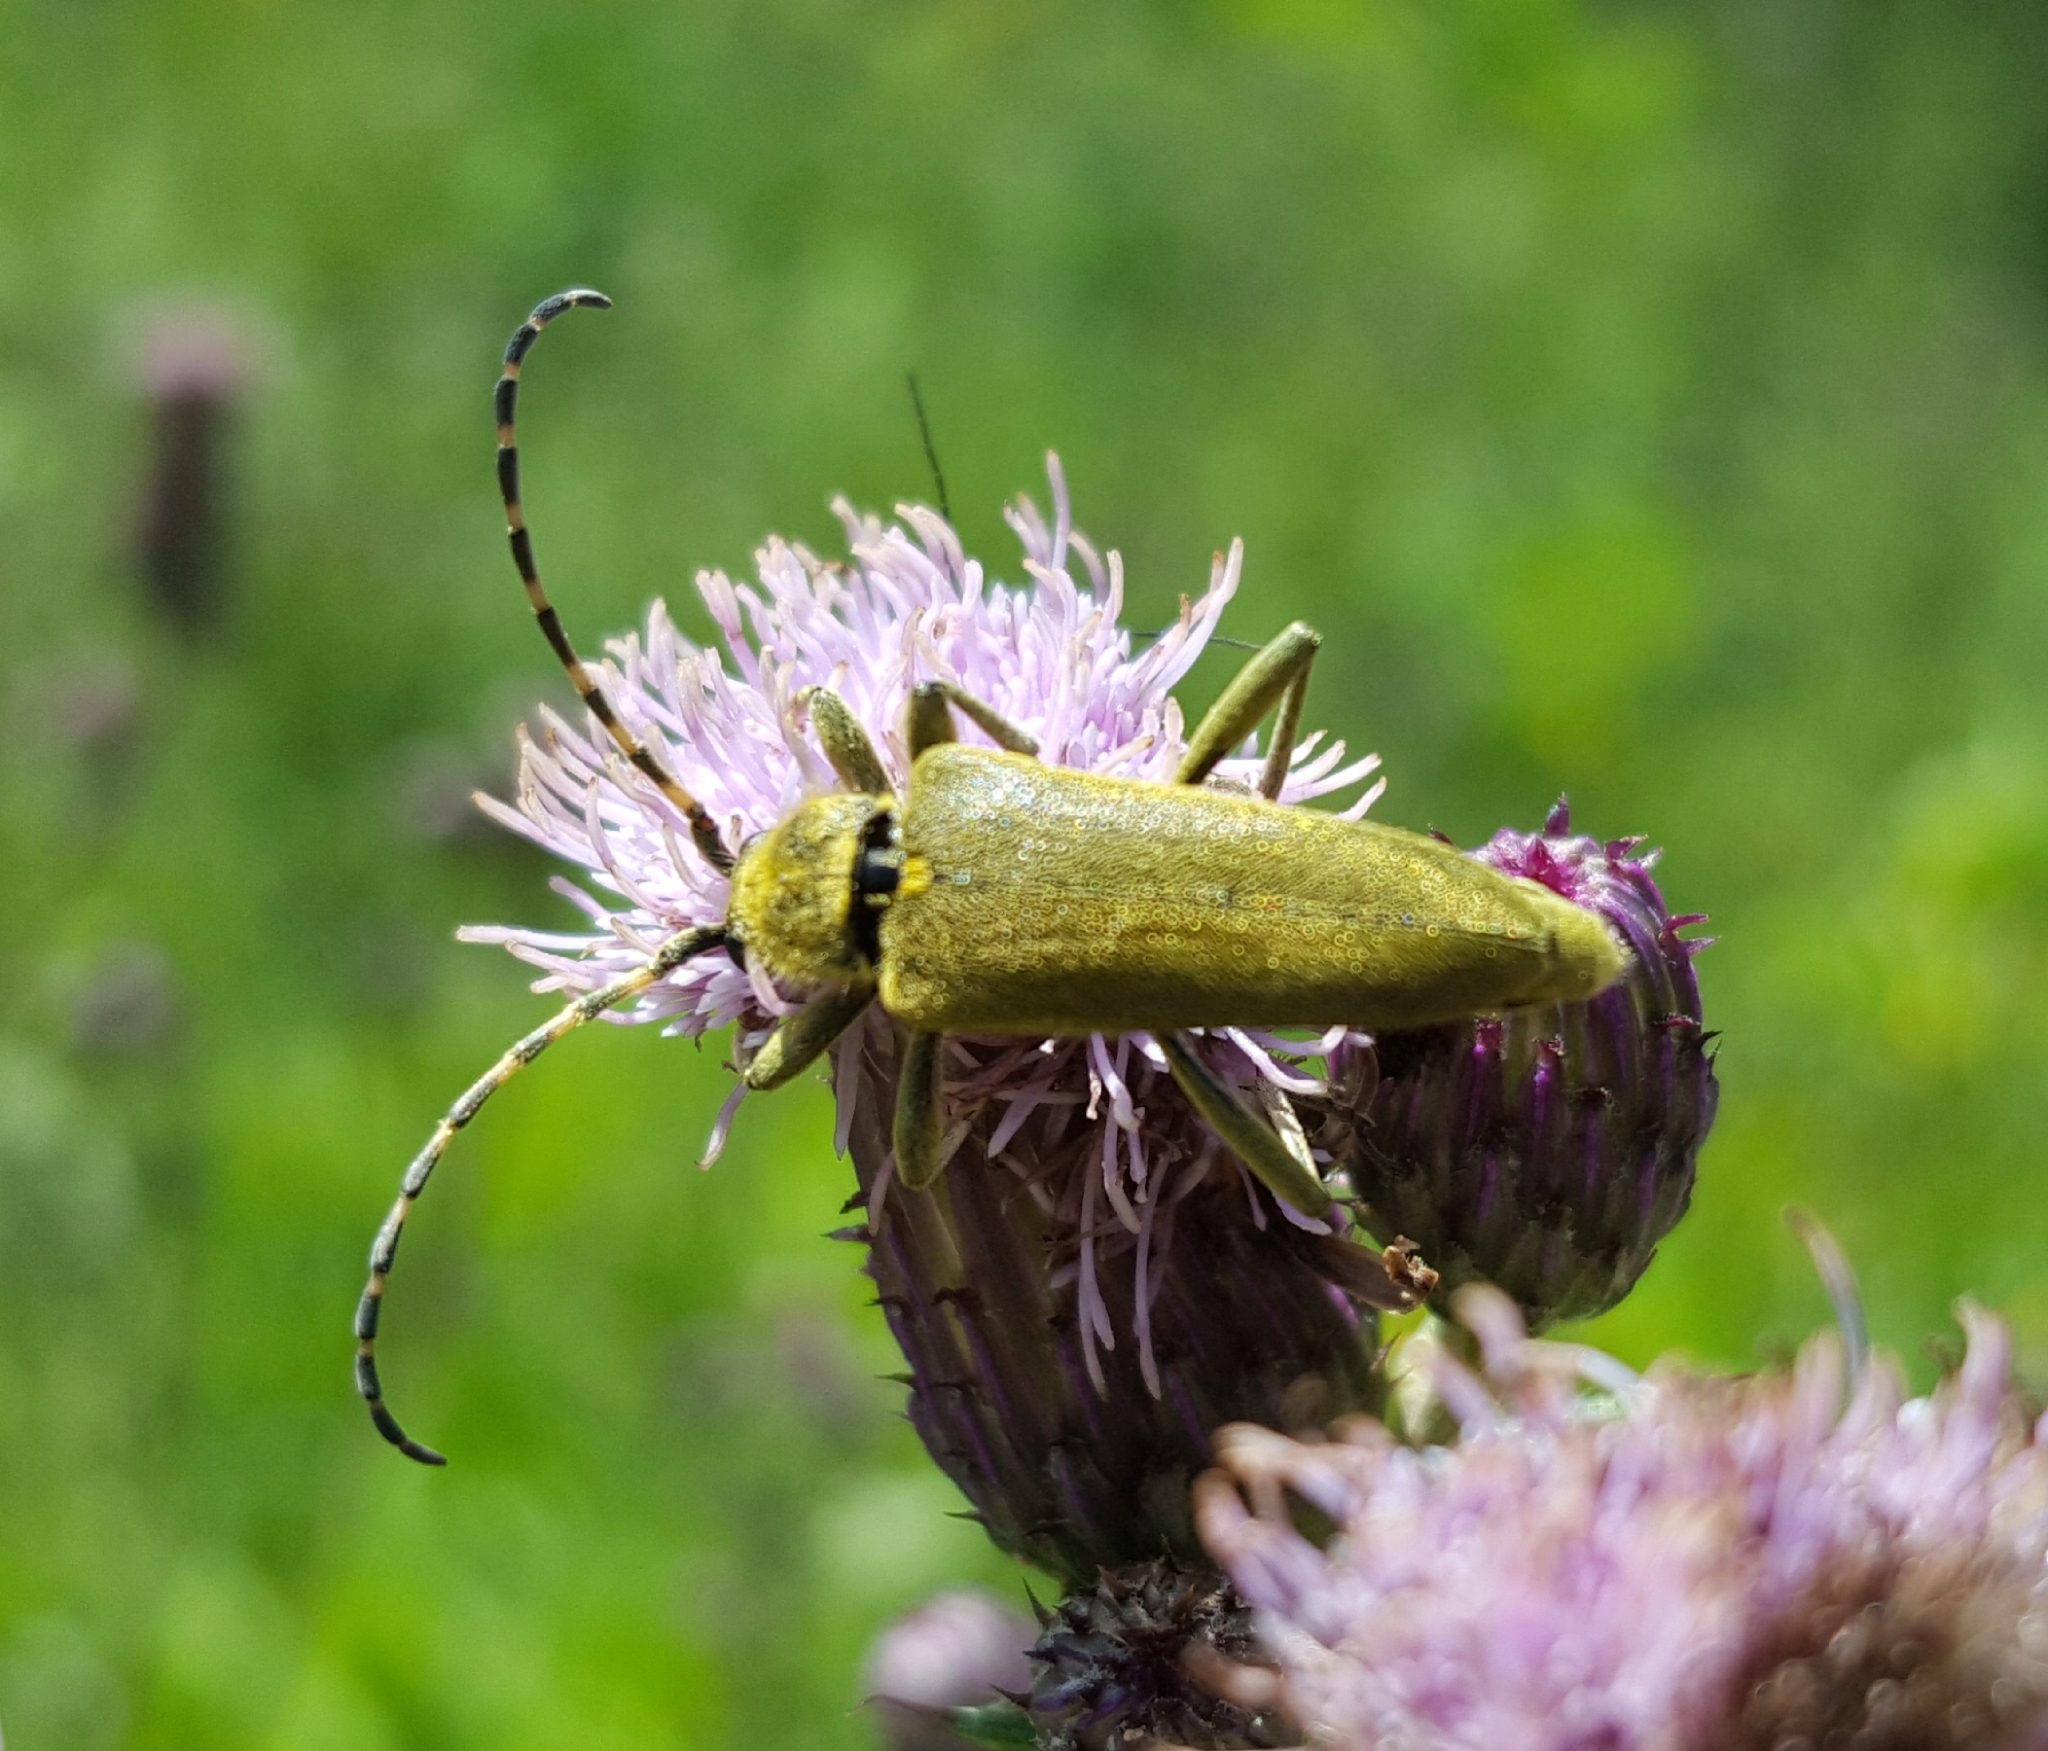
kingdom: Animalia
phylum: Arthropoda
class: Insecta
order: Coleoptera
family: Cerambycidae
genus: Lepturobosca
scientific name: Lepturobosca virens
